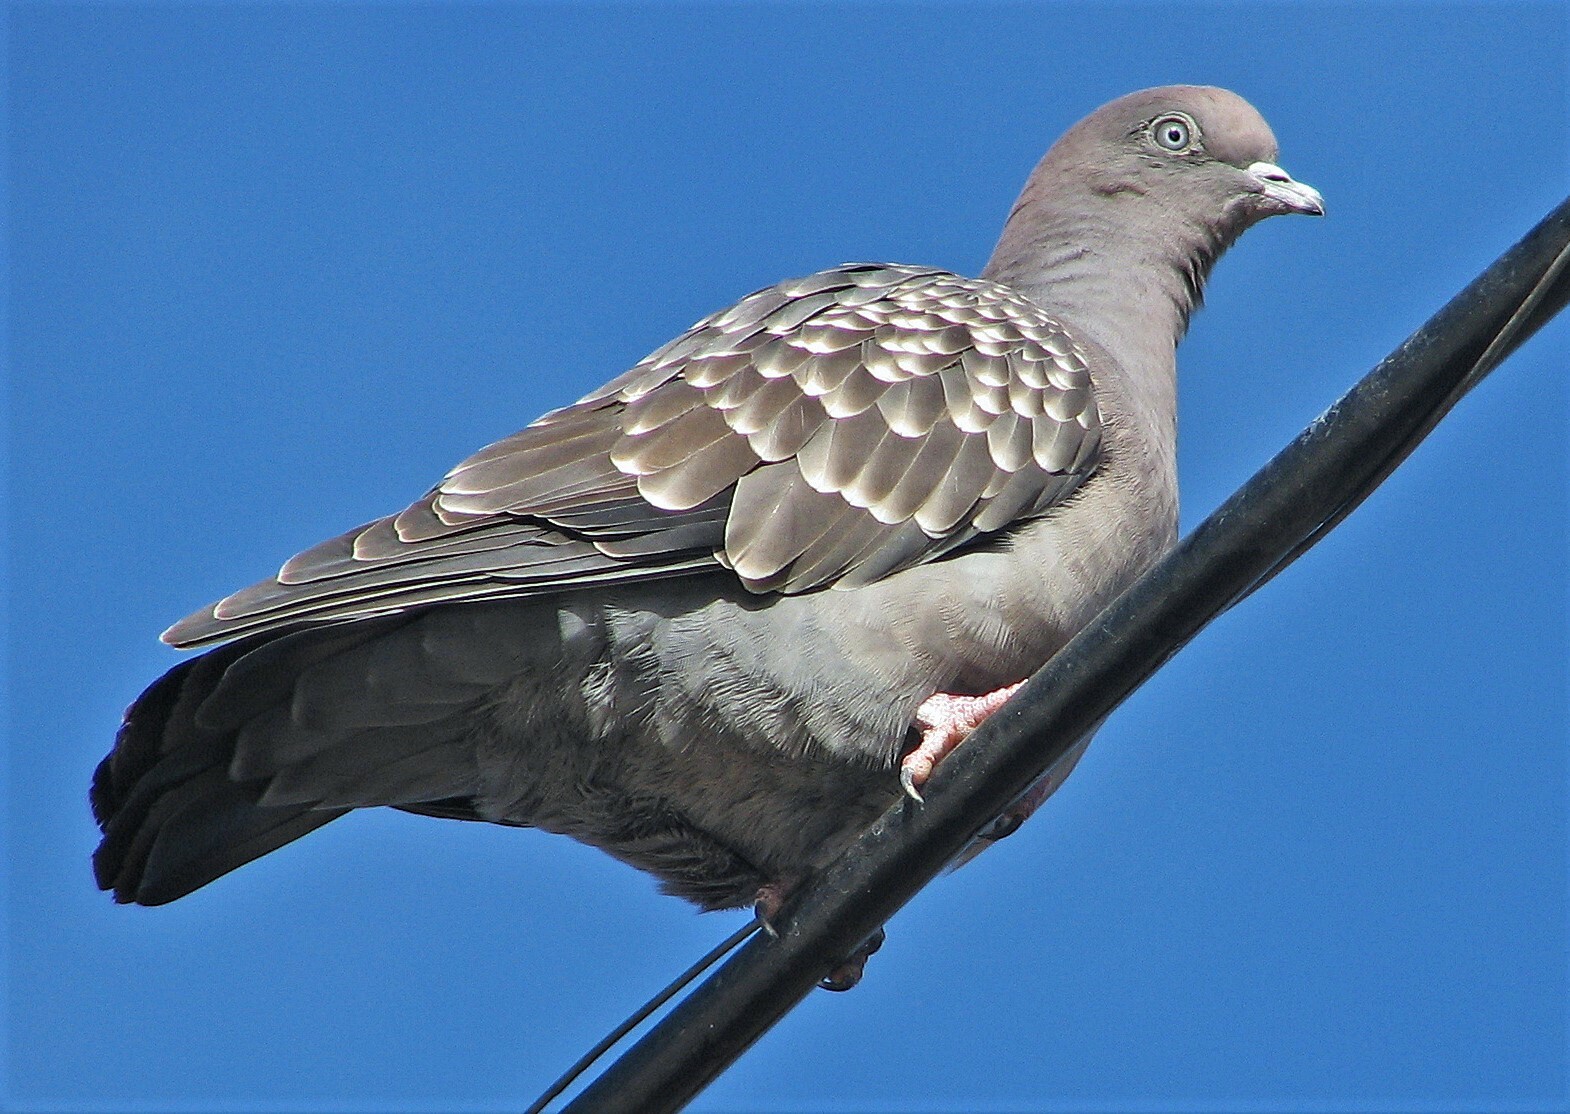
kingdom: Animalia
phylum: Chordata
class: Aves
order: Columbiformes
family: Columbidae
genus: Patagioenas
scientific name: Patagioenas maculosa
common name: Spot-winged pigeon
